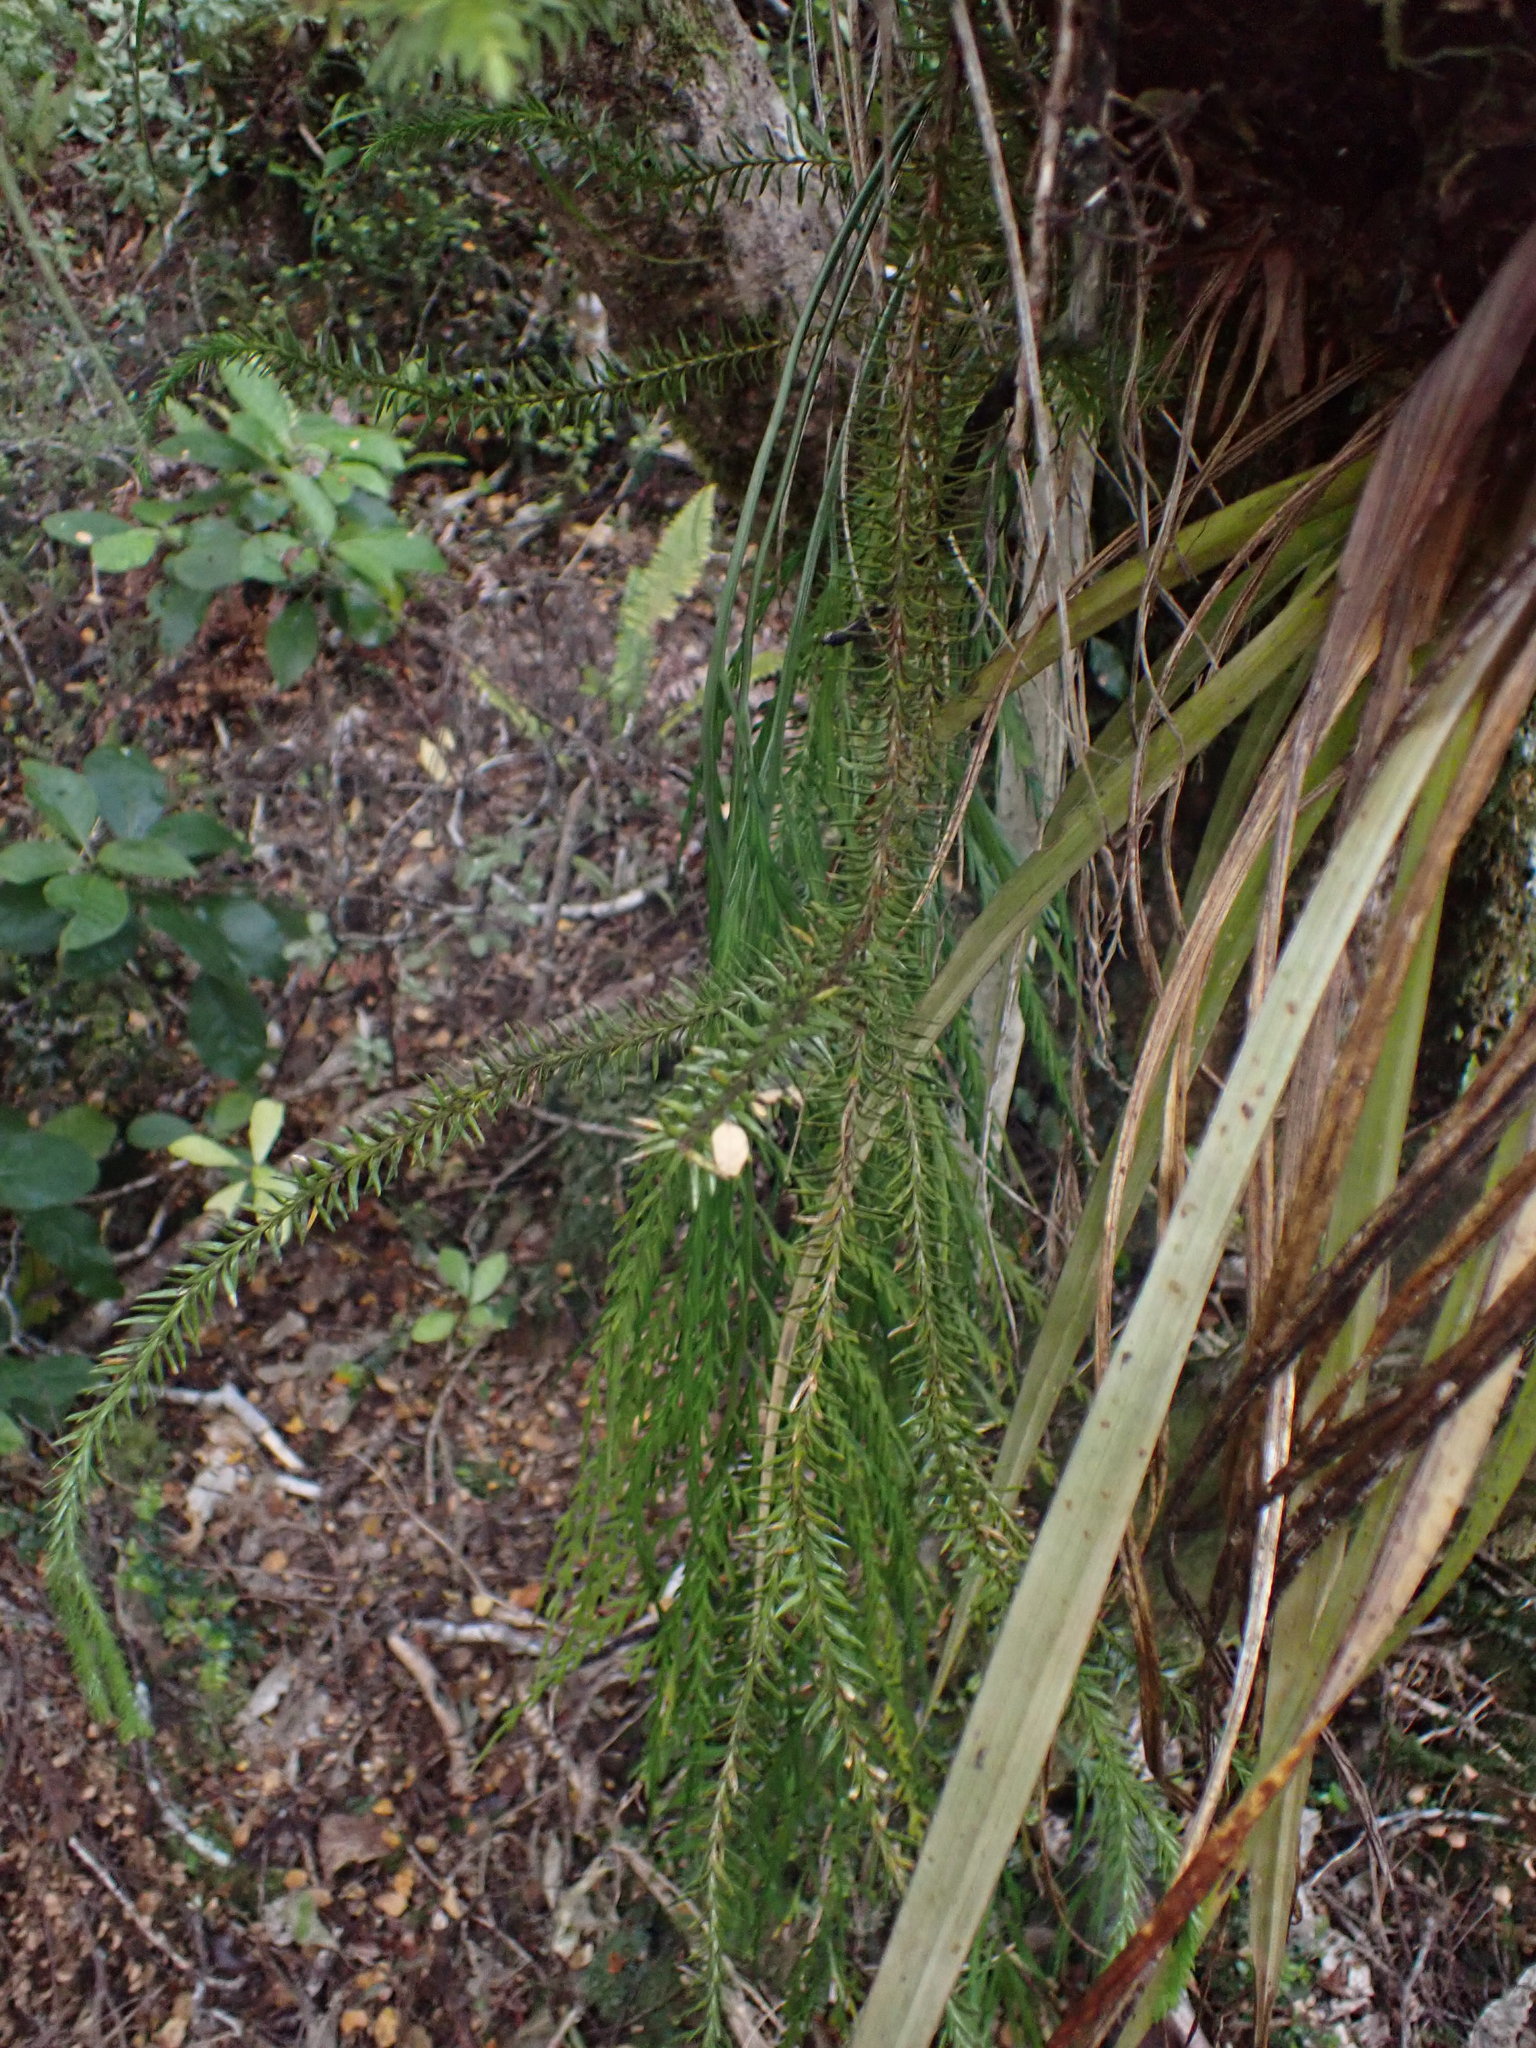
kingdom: Plantae
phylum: Tracheophyta
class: Lycopodiopsida
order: Lycopodiales
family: Lycopodiaceae
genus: Phlegmariurus
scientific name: Phlegmariurus varius
